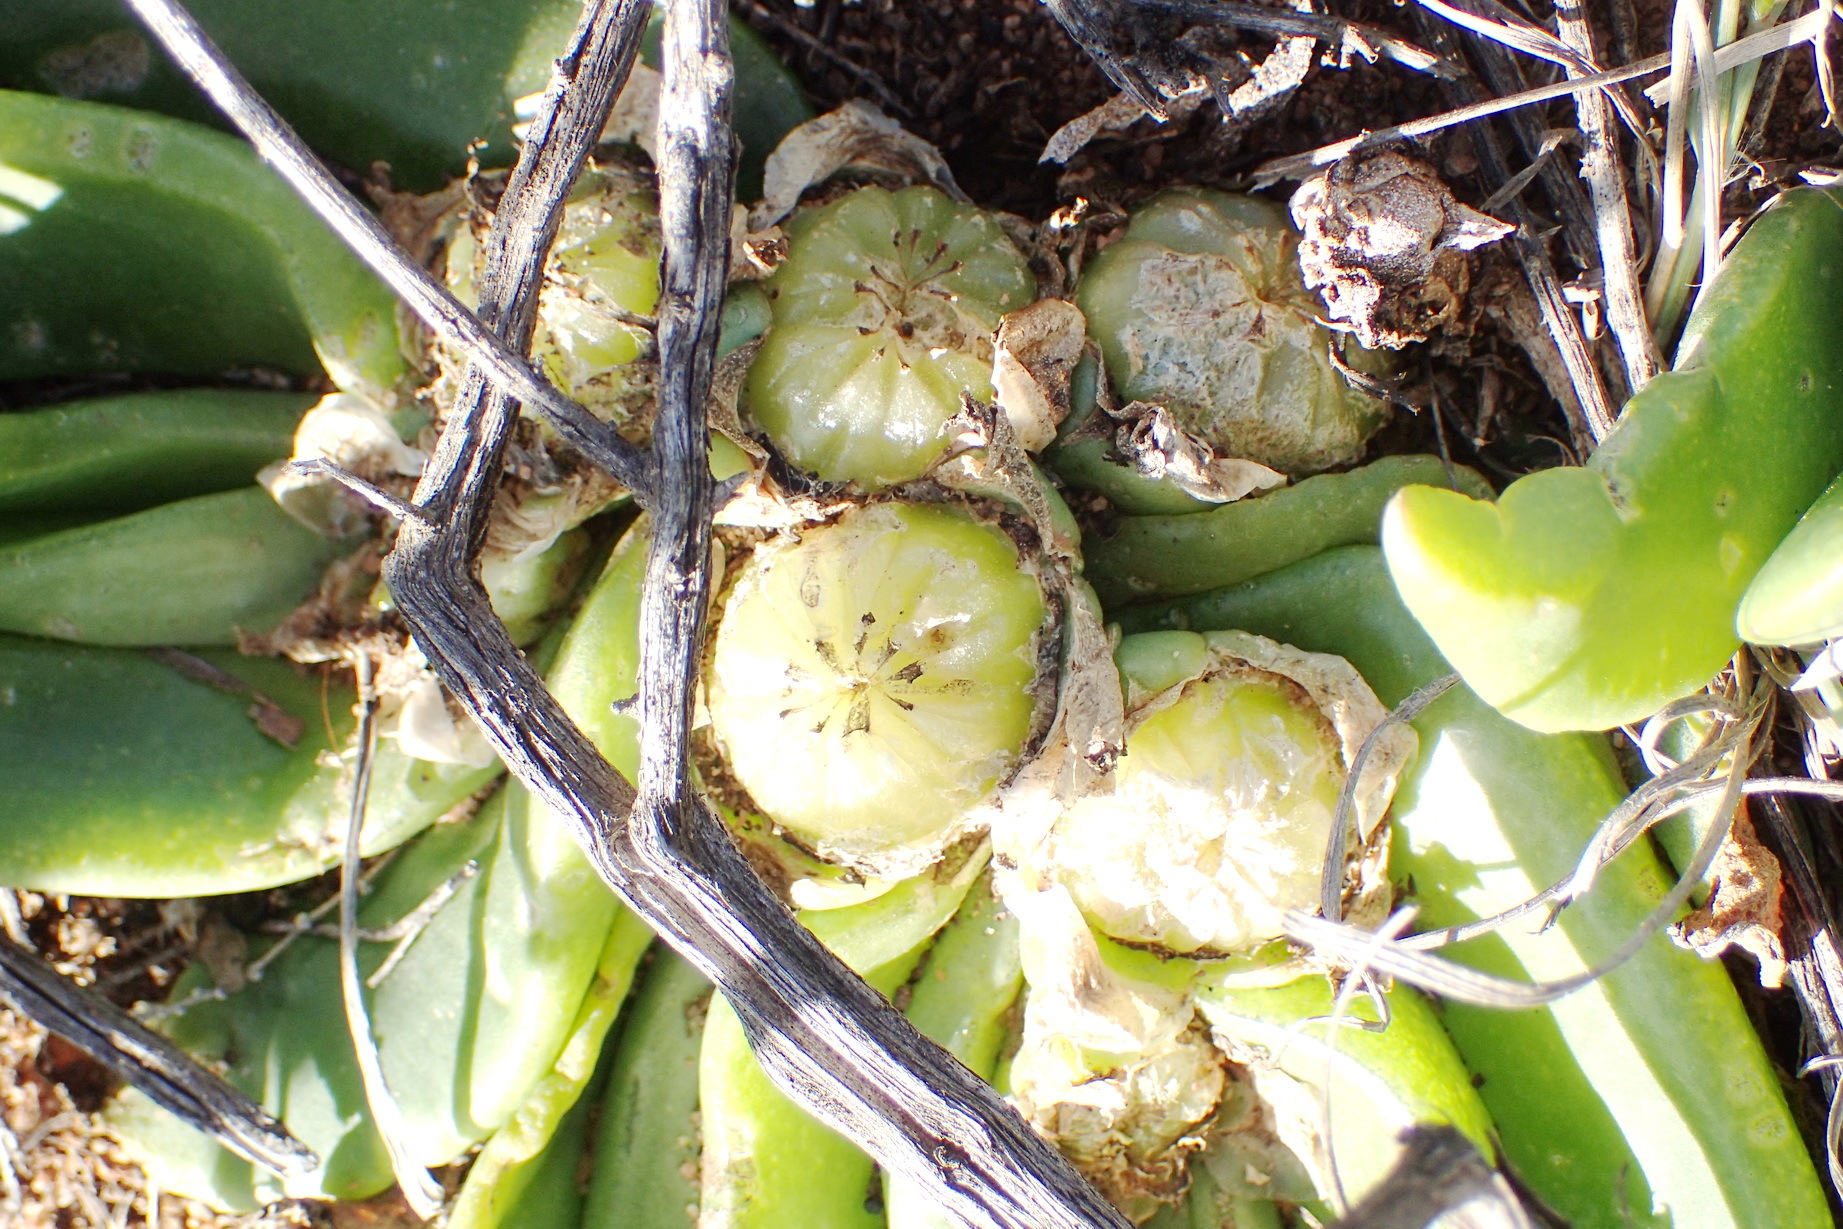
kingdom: Plantae
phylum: Tracheophyta
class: Magnoliopsida
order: Caryophyllales
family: Aizoaceae
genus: Glottiphyllum
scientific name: Glottiphyllum depressum
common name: Fig-marigold
